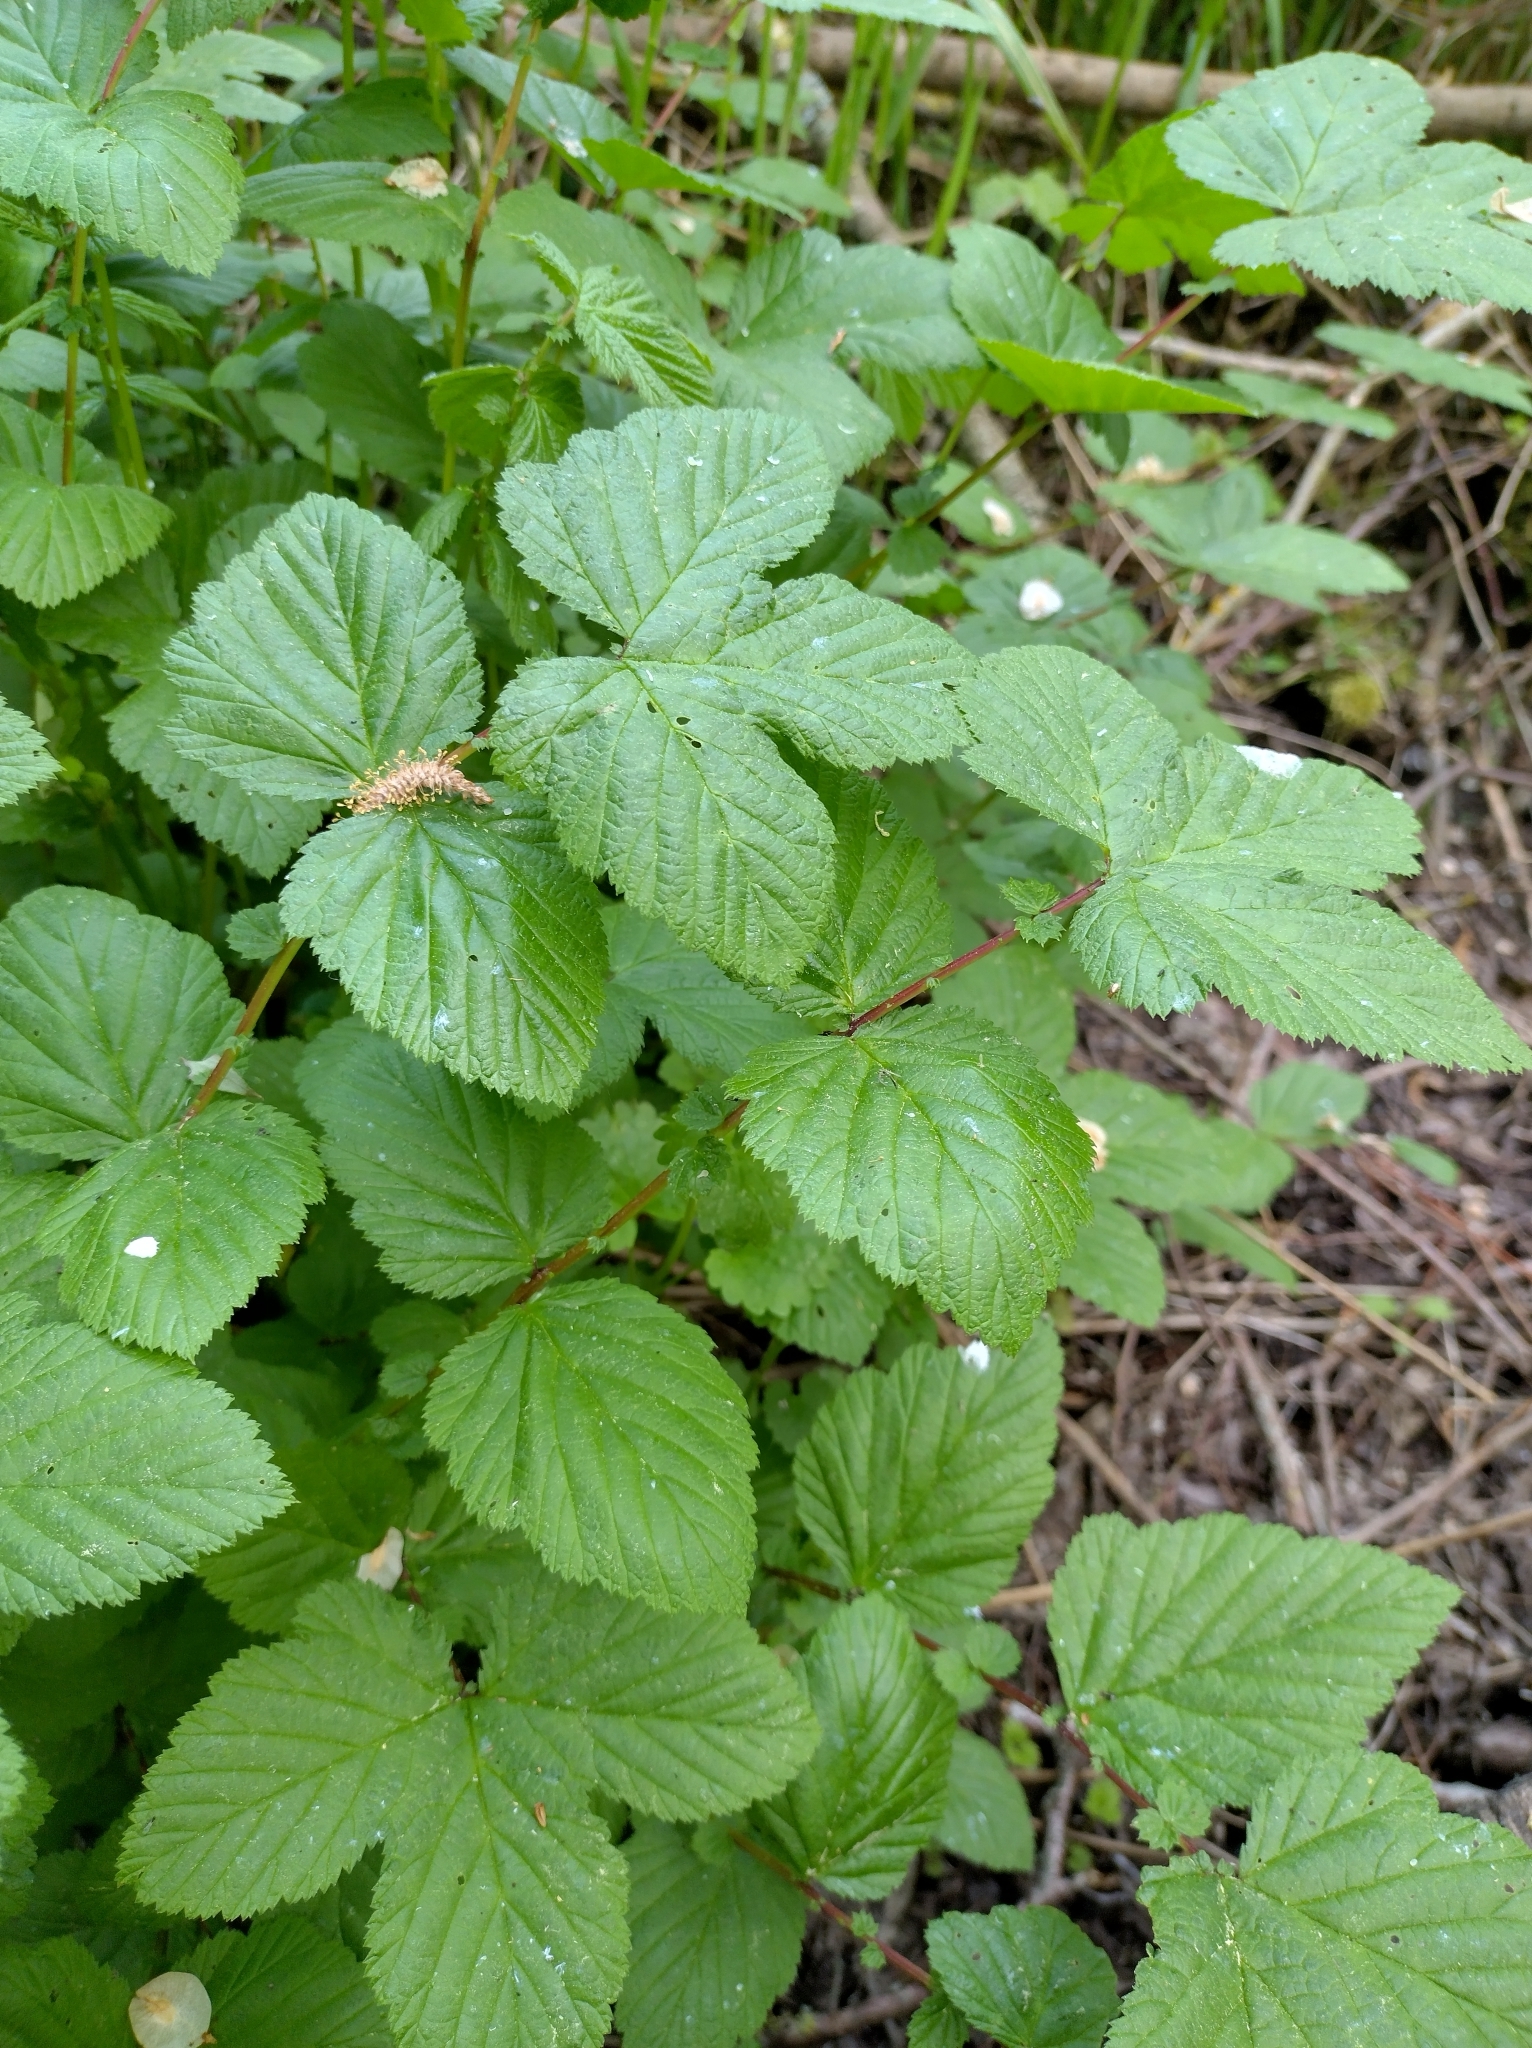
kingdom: Plantae
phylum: Tracheophyta
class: Magnoliopsida
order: Rosales
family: Rosaceae
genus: Filipendula
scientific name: Filipendula ulmaria
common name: Meadowsweet
